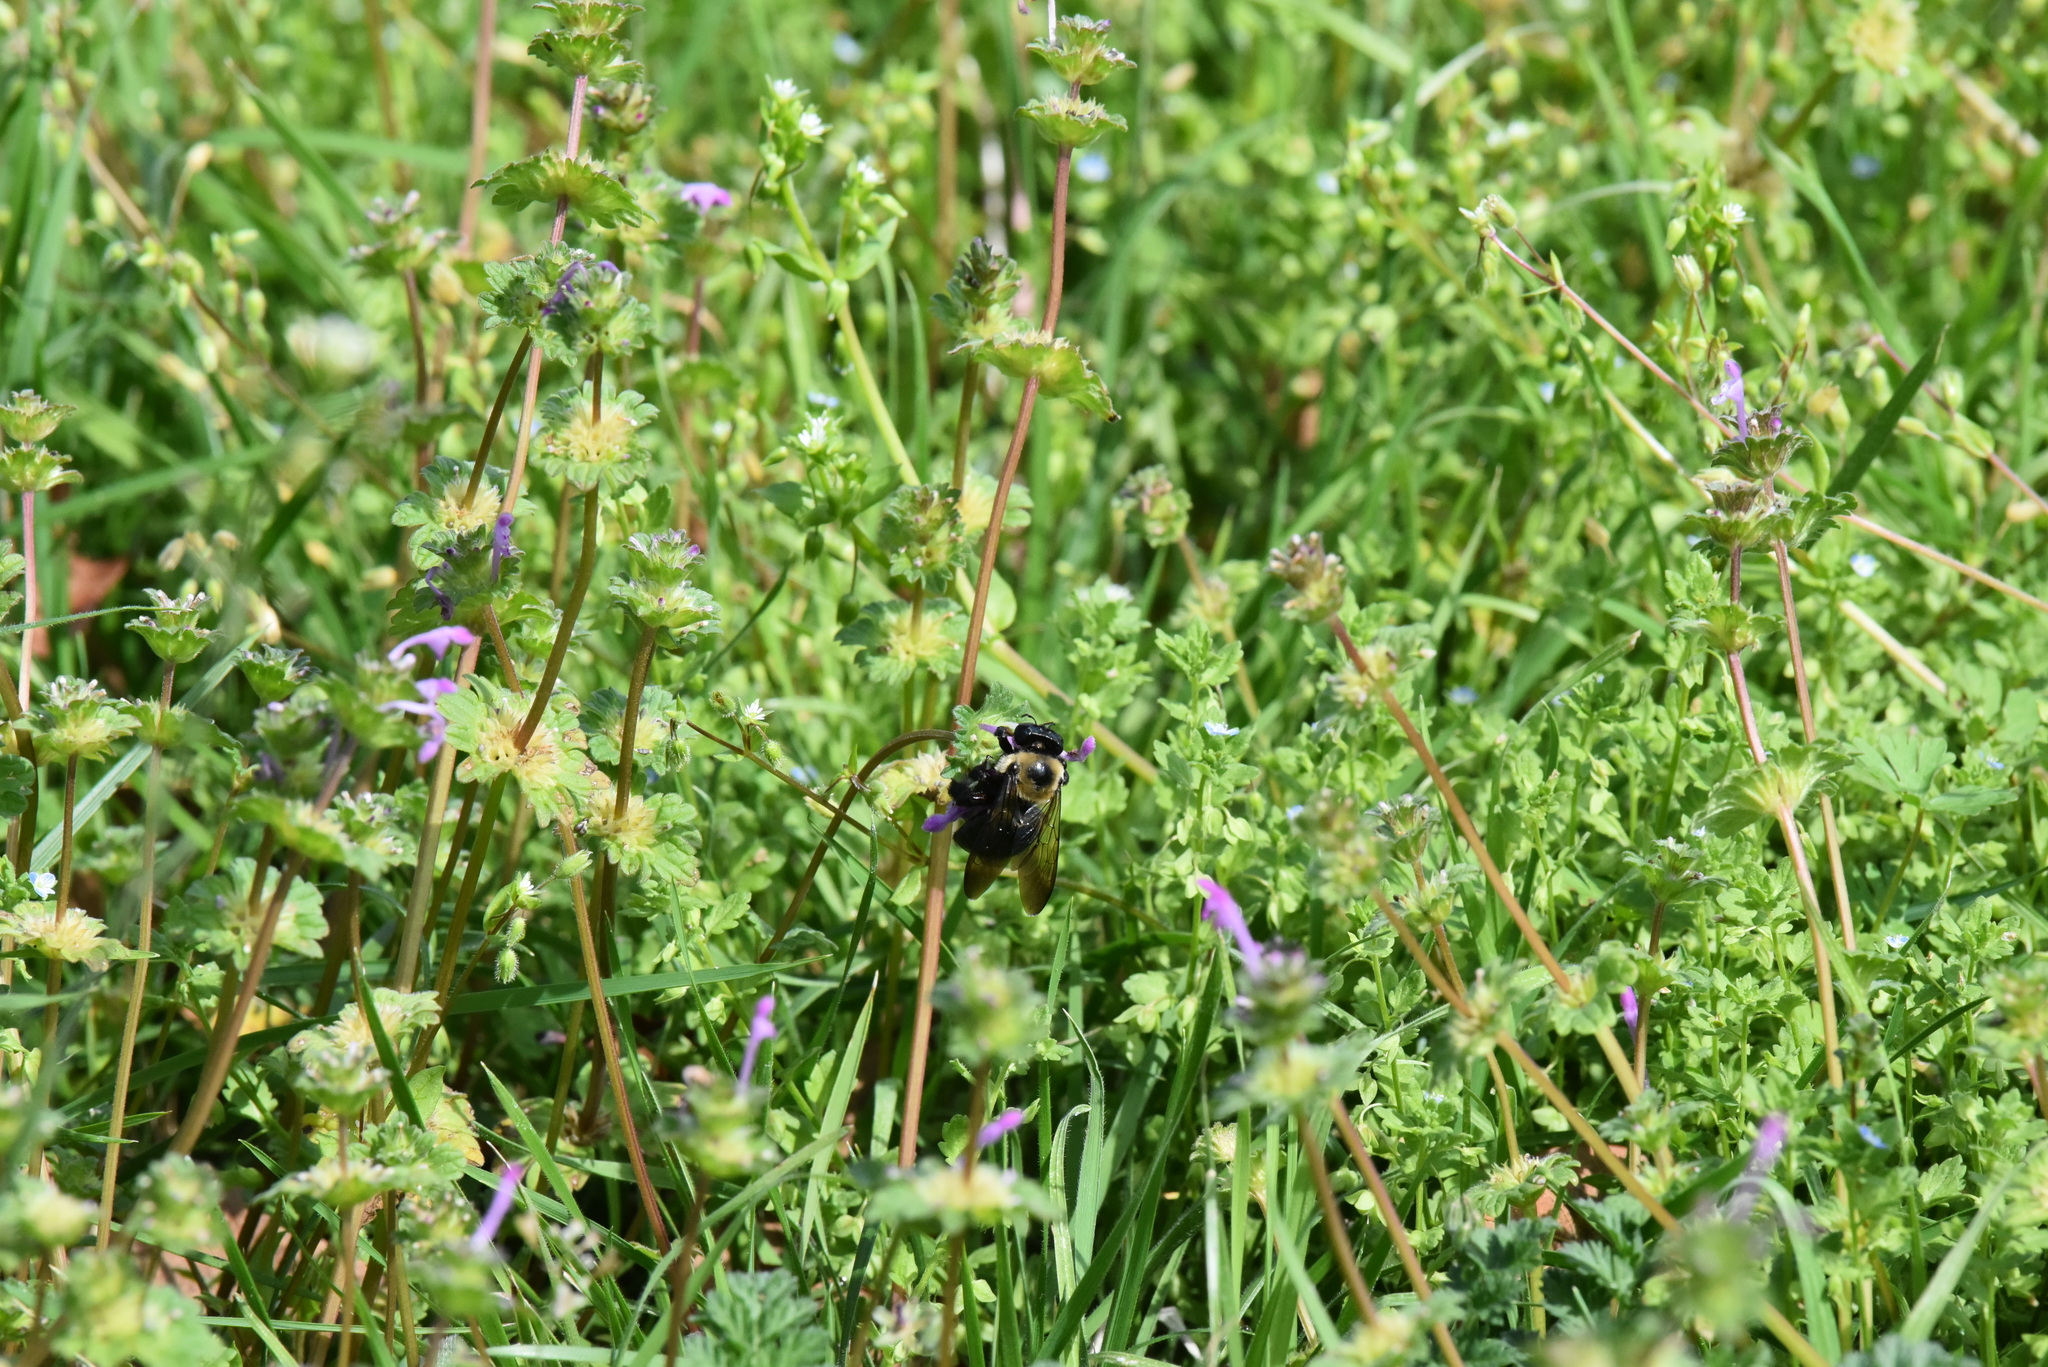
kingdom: Animalia
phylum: Arthropoda
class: Insecta
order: Hymenoptera
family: Apidae
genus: Xylocopa
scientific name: Xylocopa virginica
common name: Carpenter bee
